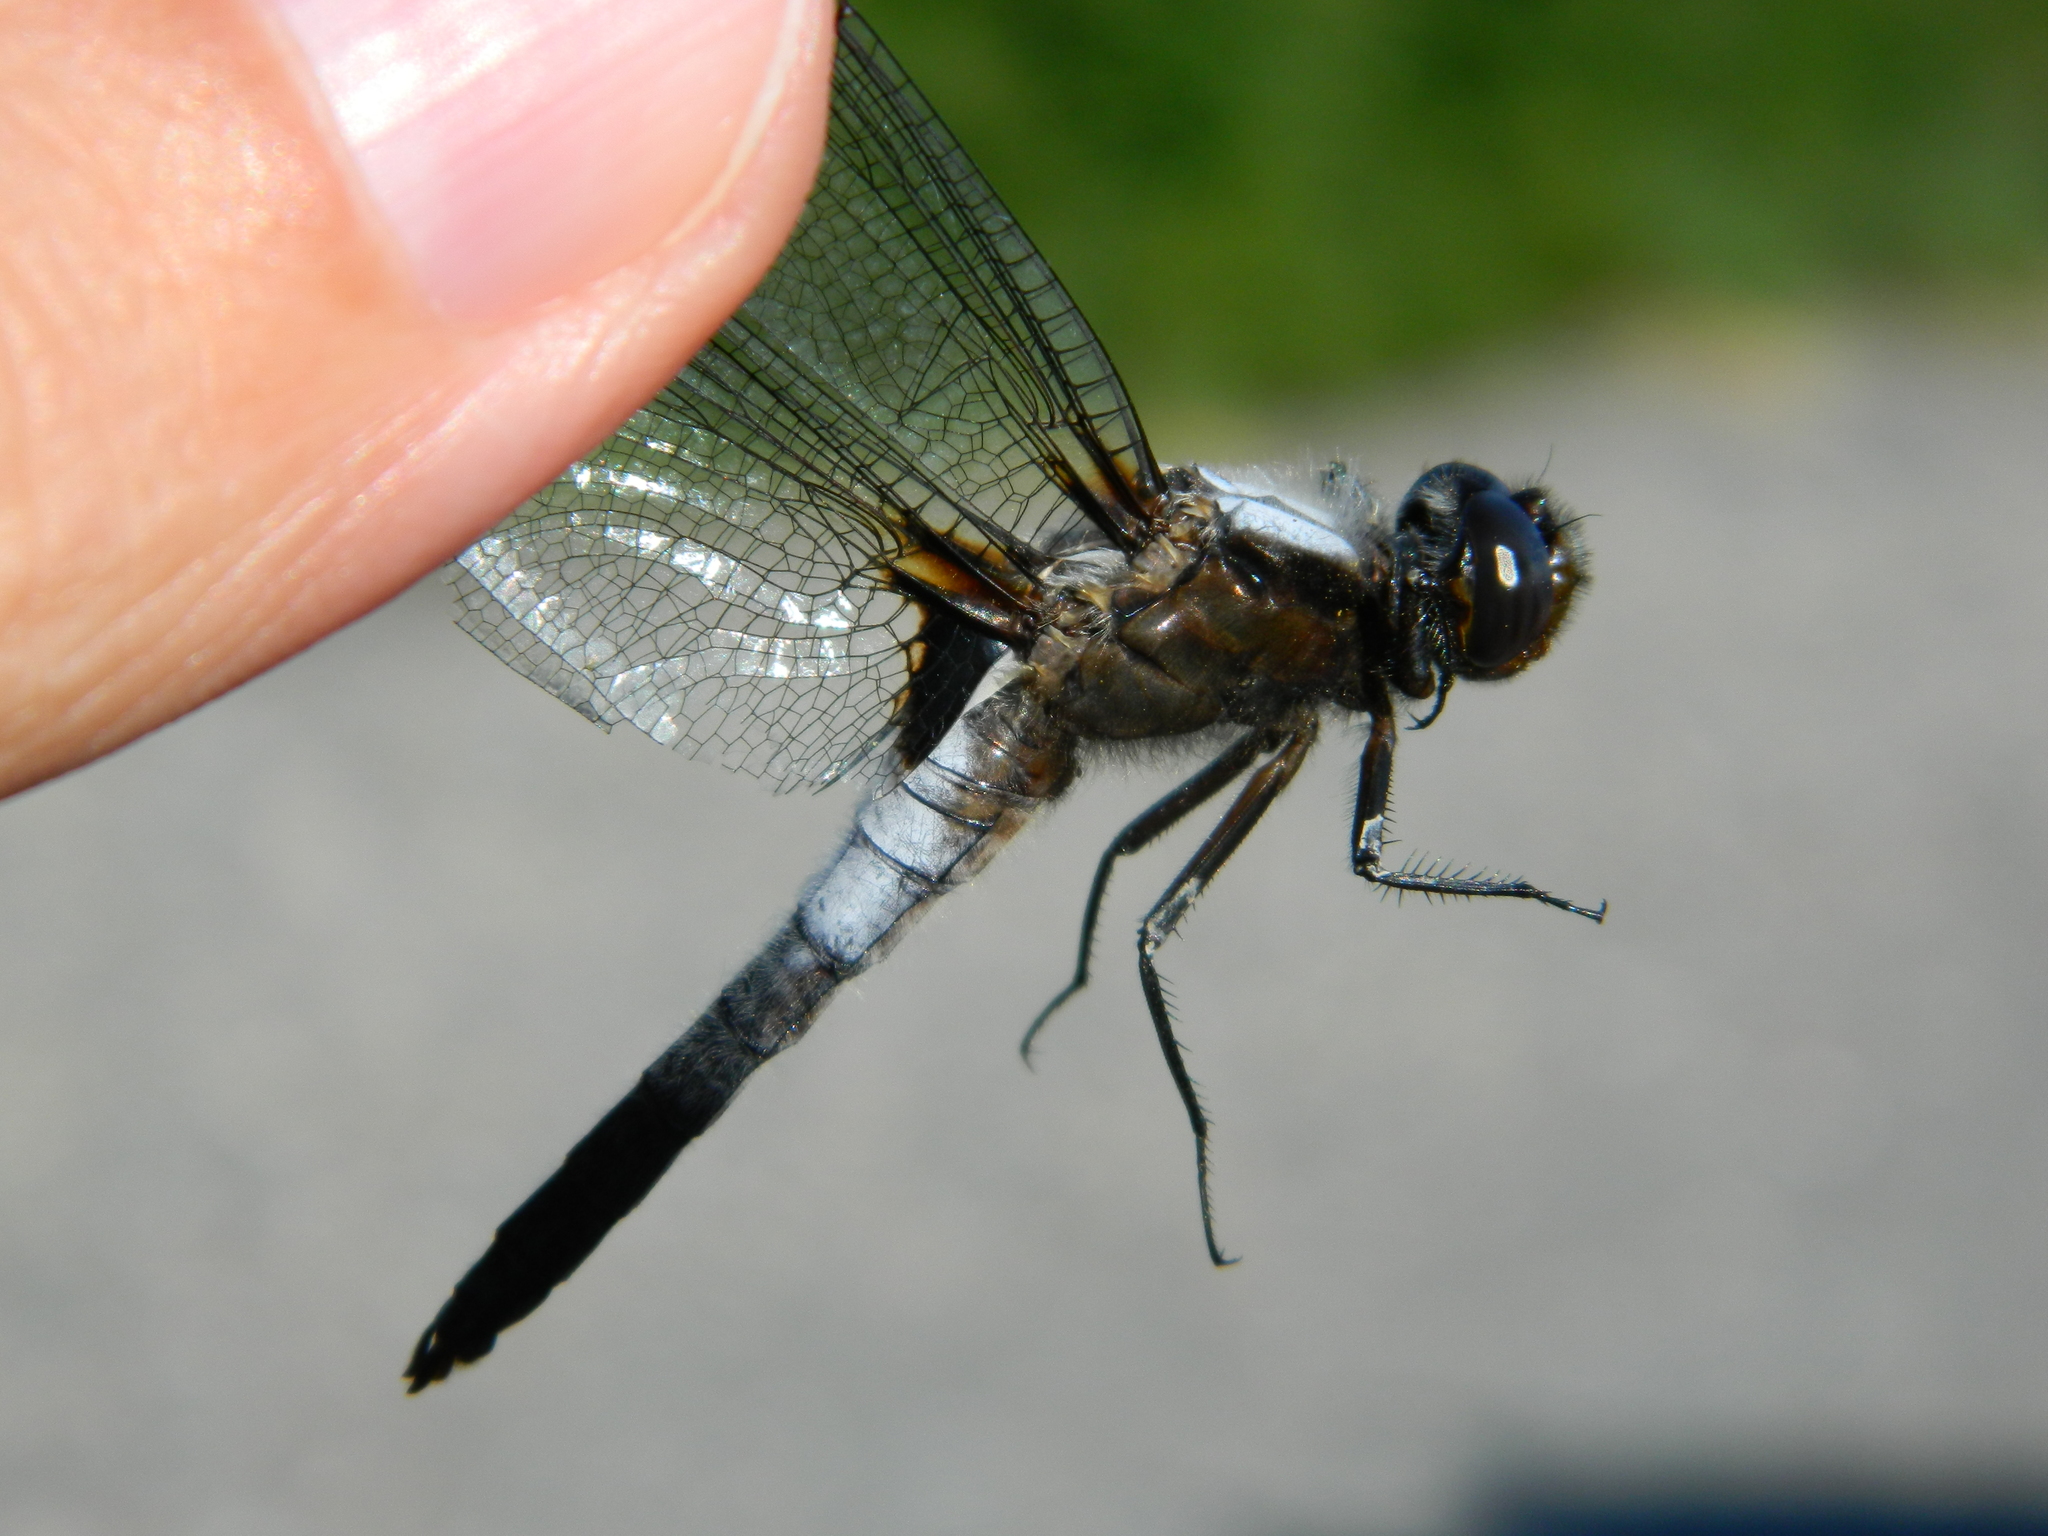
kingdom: Animalia
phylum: Arthropoda
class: Insecta
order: Odonata
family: Libellulidae
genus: Ladona
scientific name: Ladona julia
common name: Chalk-fronted corporal
